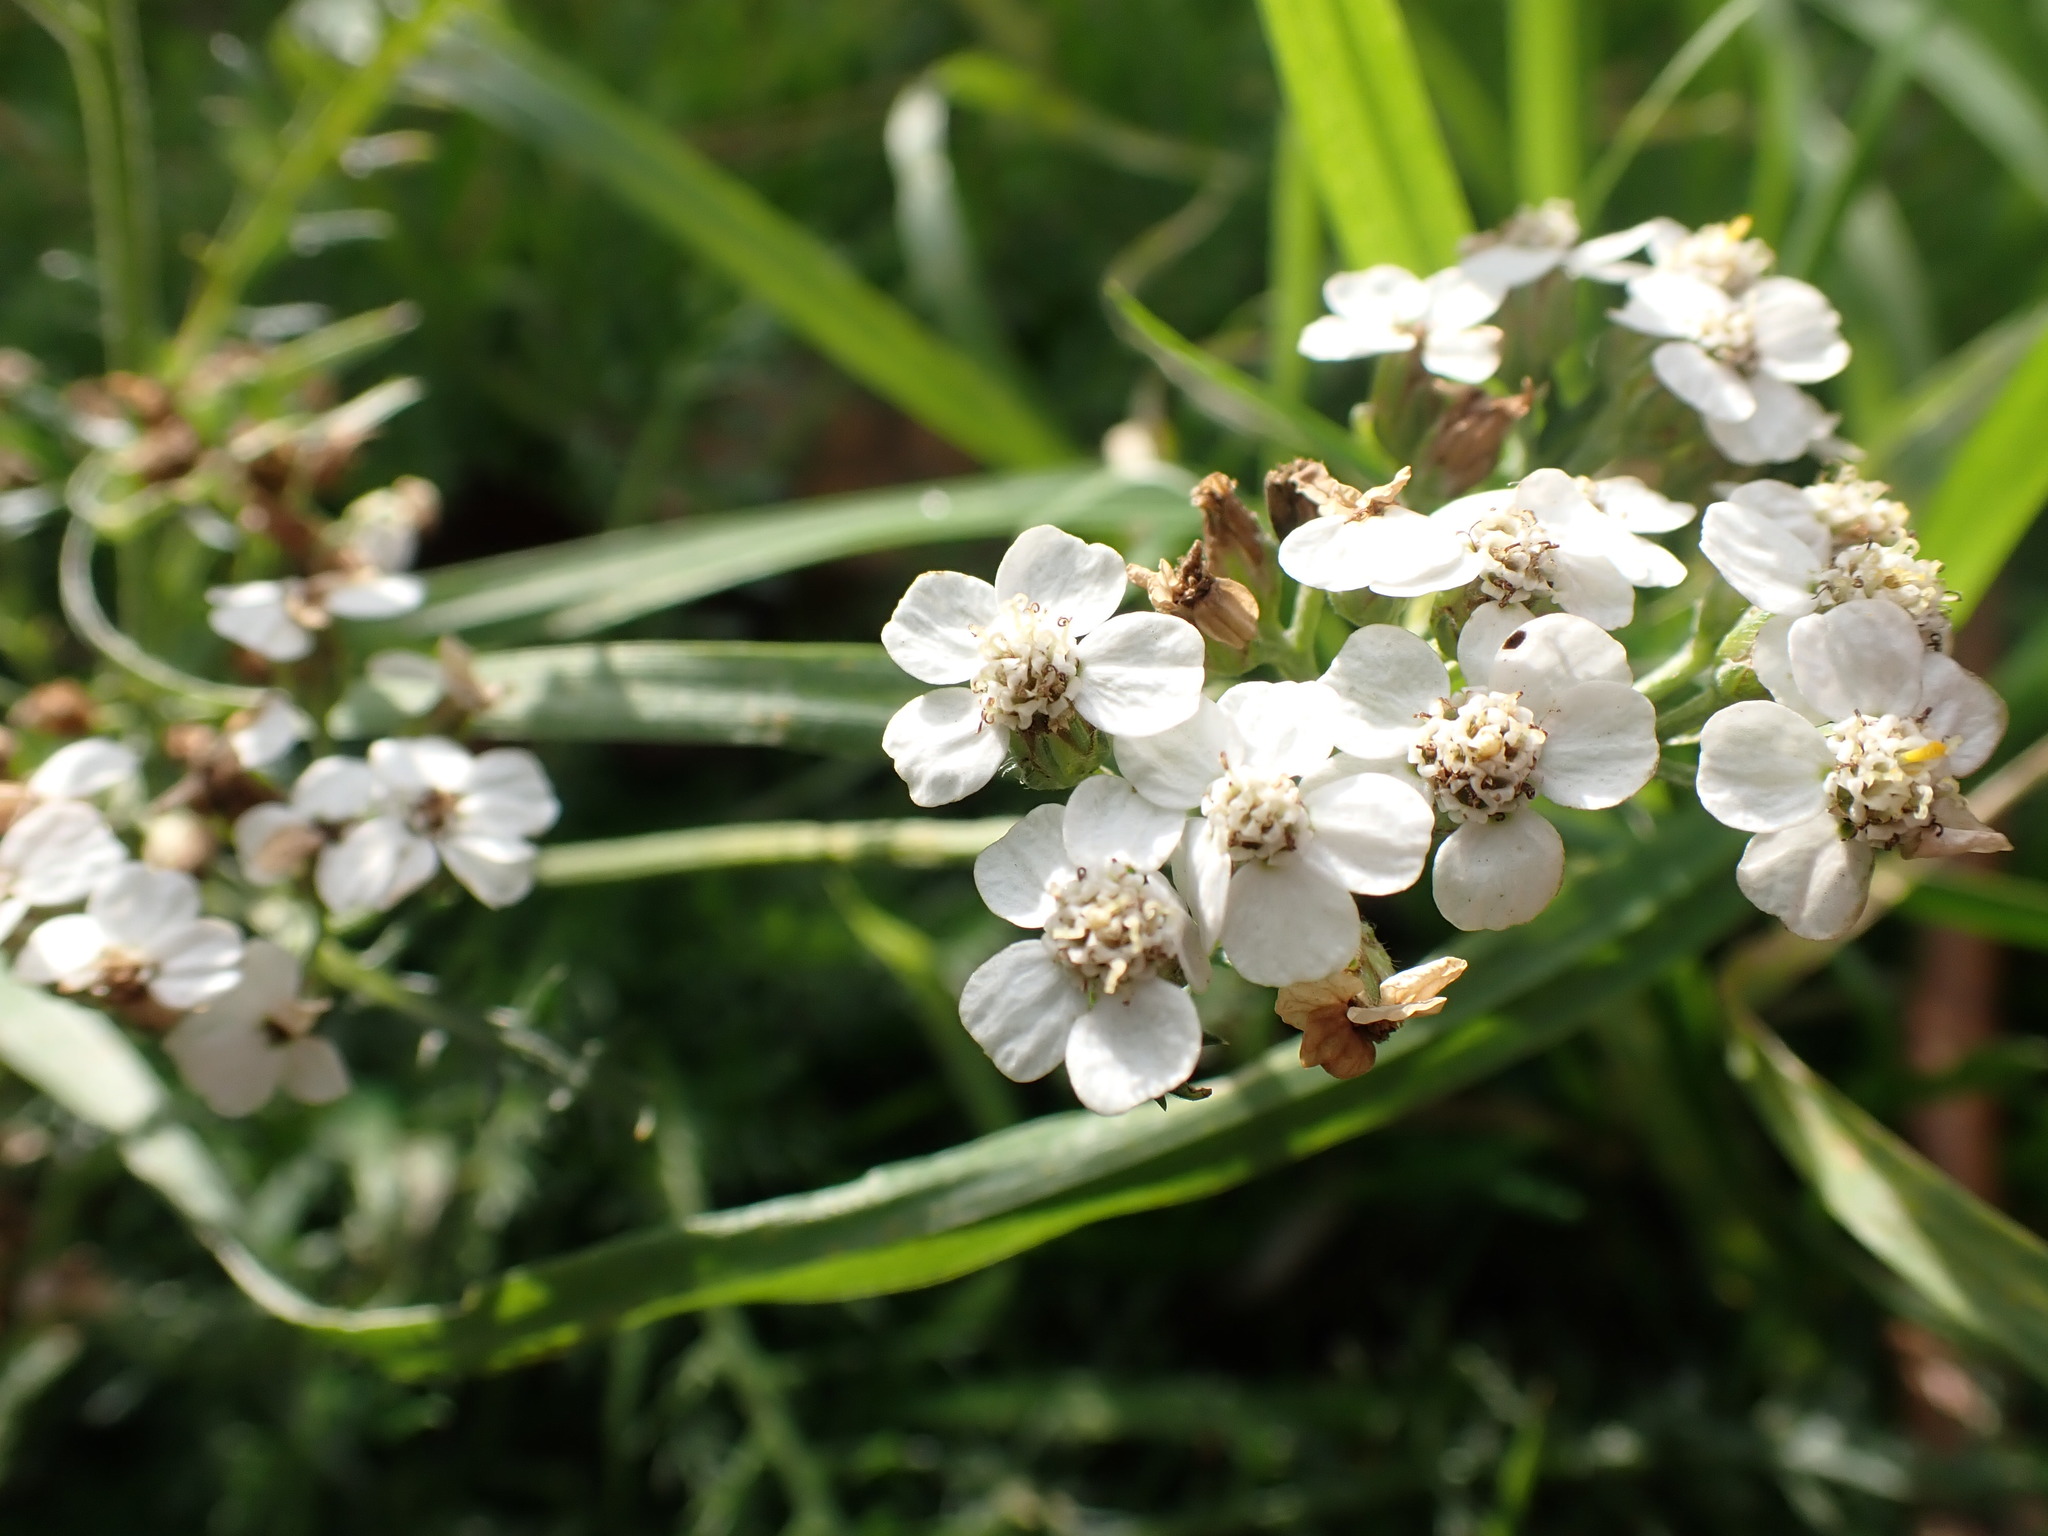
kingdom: Plantae
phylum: Tracheophyta
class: Magnoliopsida
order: Asterales
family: Asteraceae
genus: Achillea
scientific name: Achillea millefolium
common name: Yarrow
